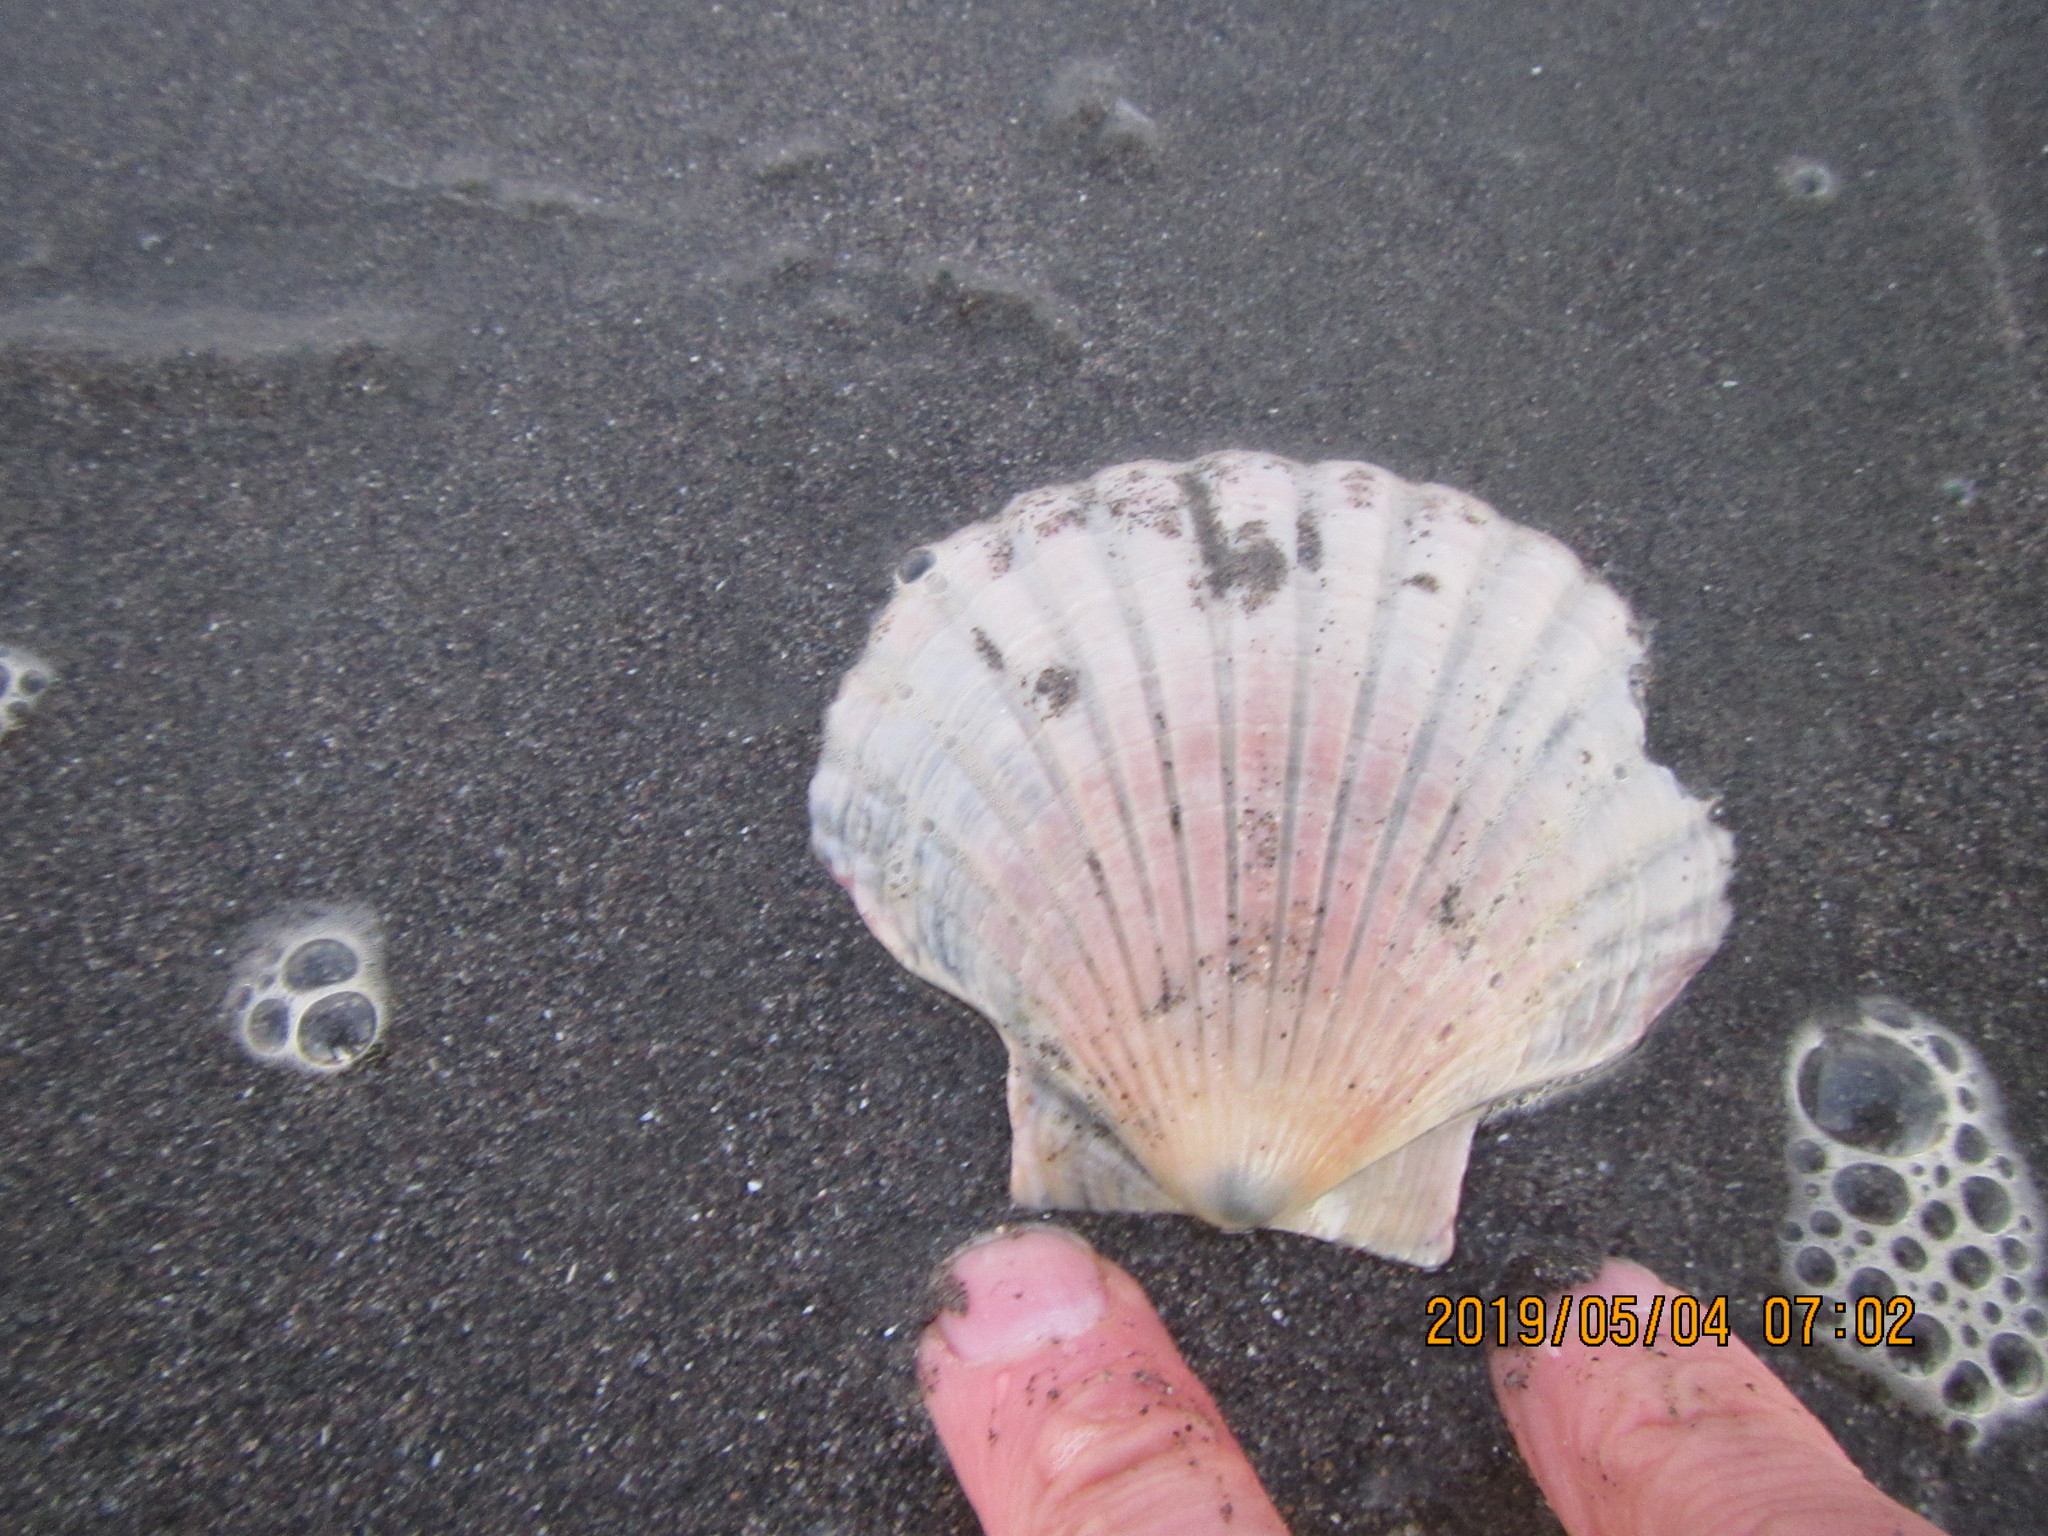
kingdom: Animalia
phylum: Mollusca
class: Bivalvia
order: Pectinida
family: Pectinidae
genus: Pecten
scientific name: Pecten novaezelandiae
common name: New zealand scallop
